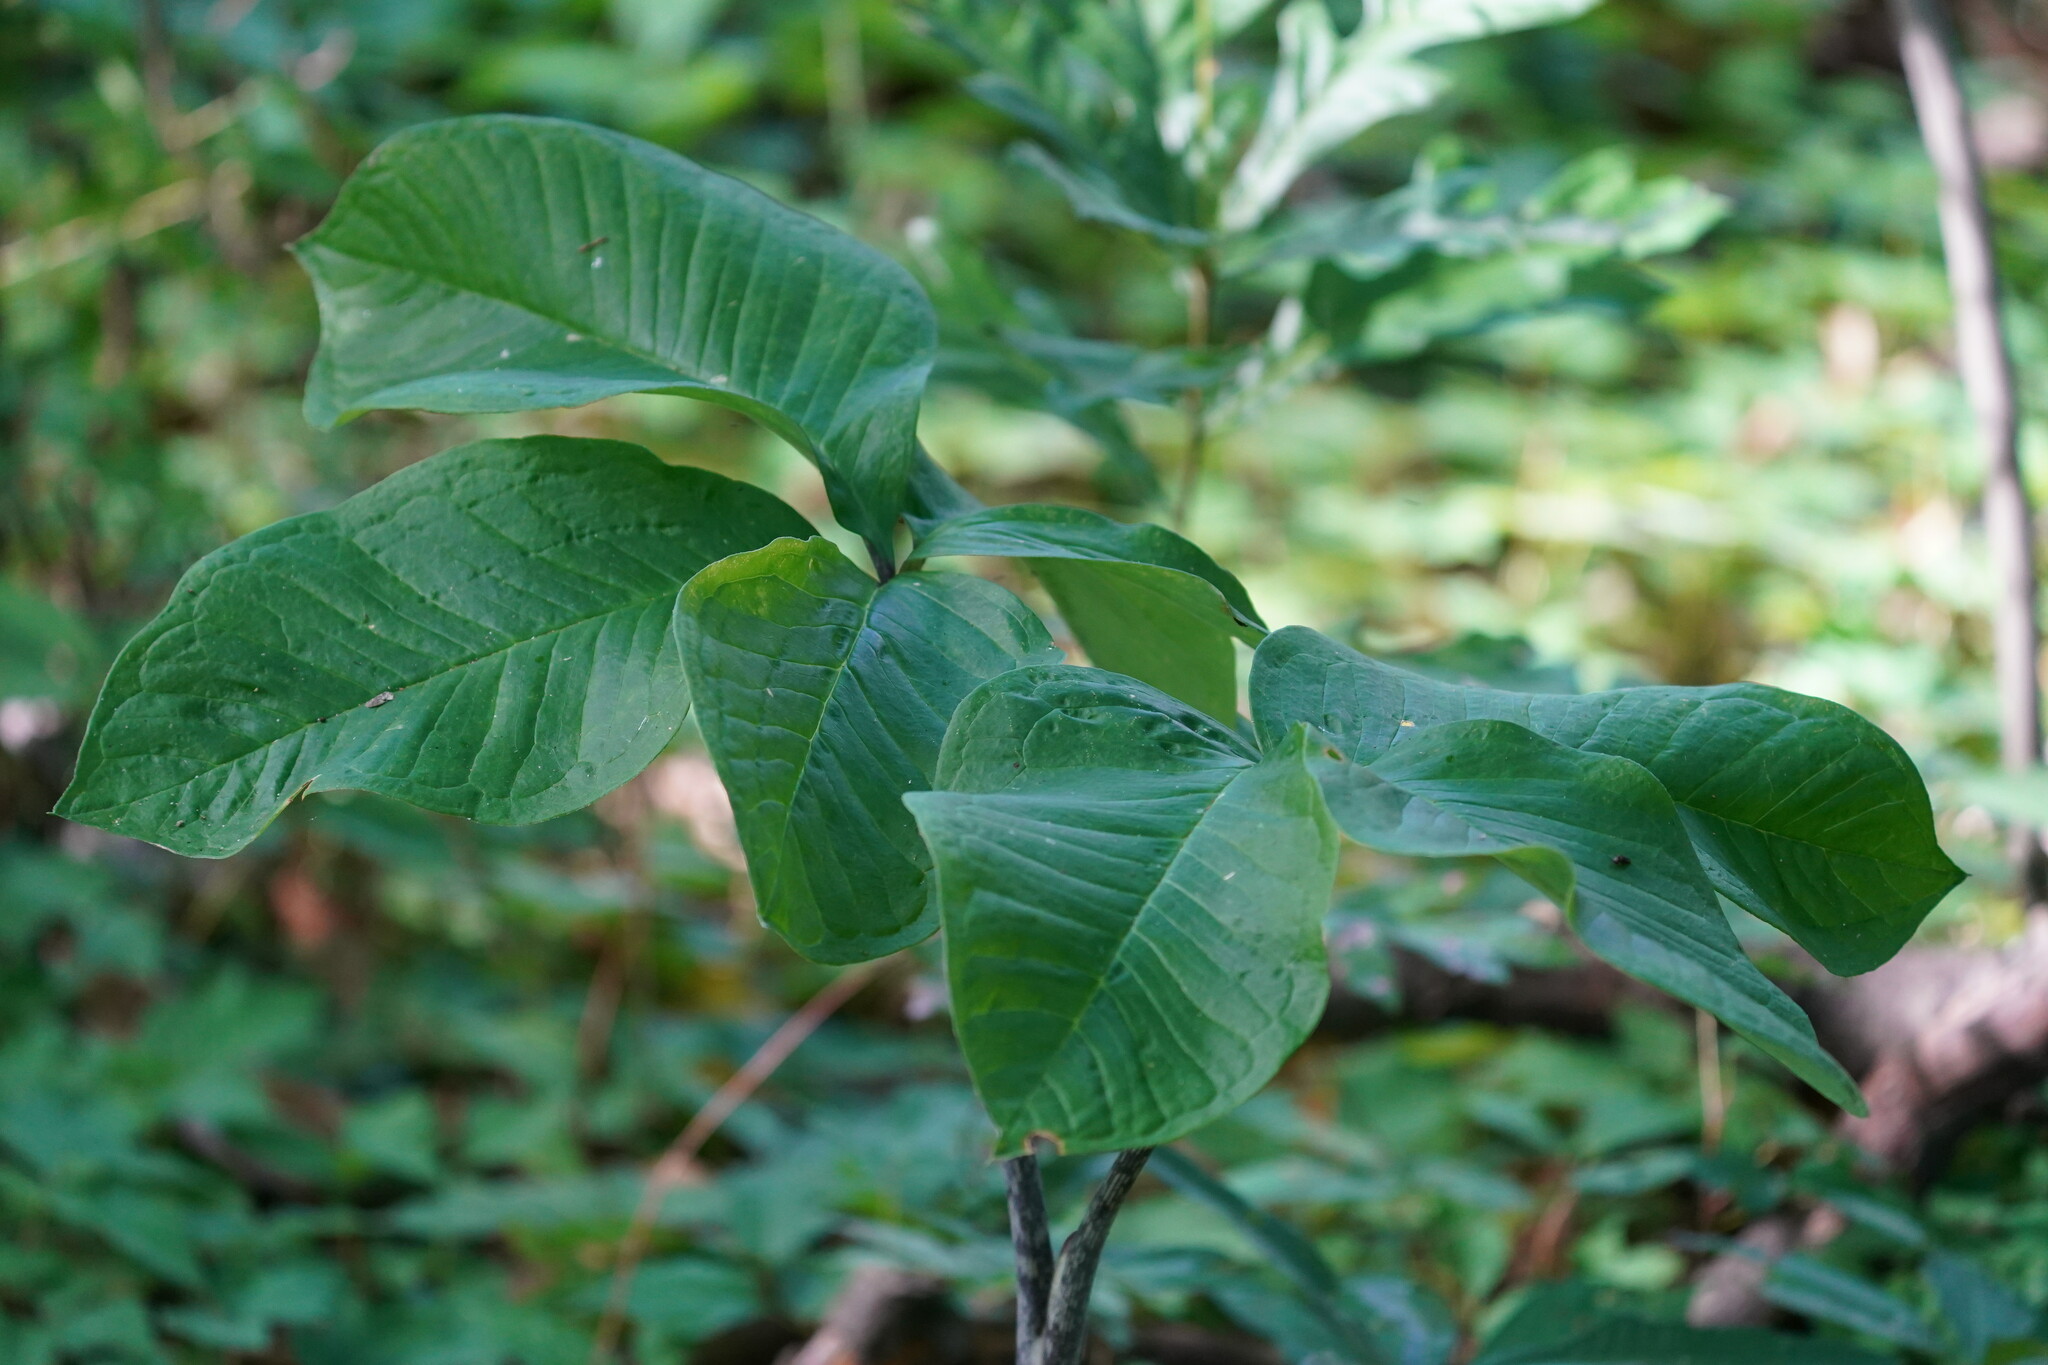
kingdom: Plantae
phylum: Tracheophyta
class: Liliopsida
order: Alismatales
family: Araceae
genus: Arisaema
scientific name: Arisaema quinatum
